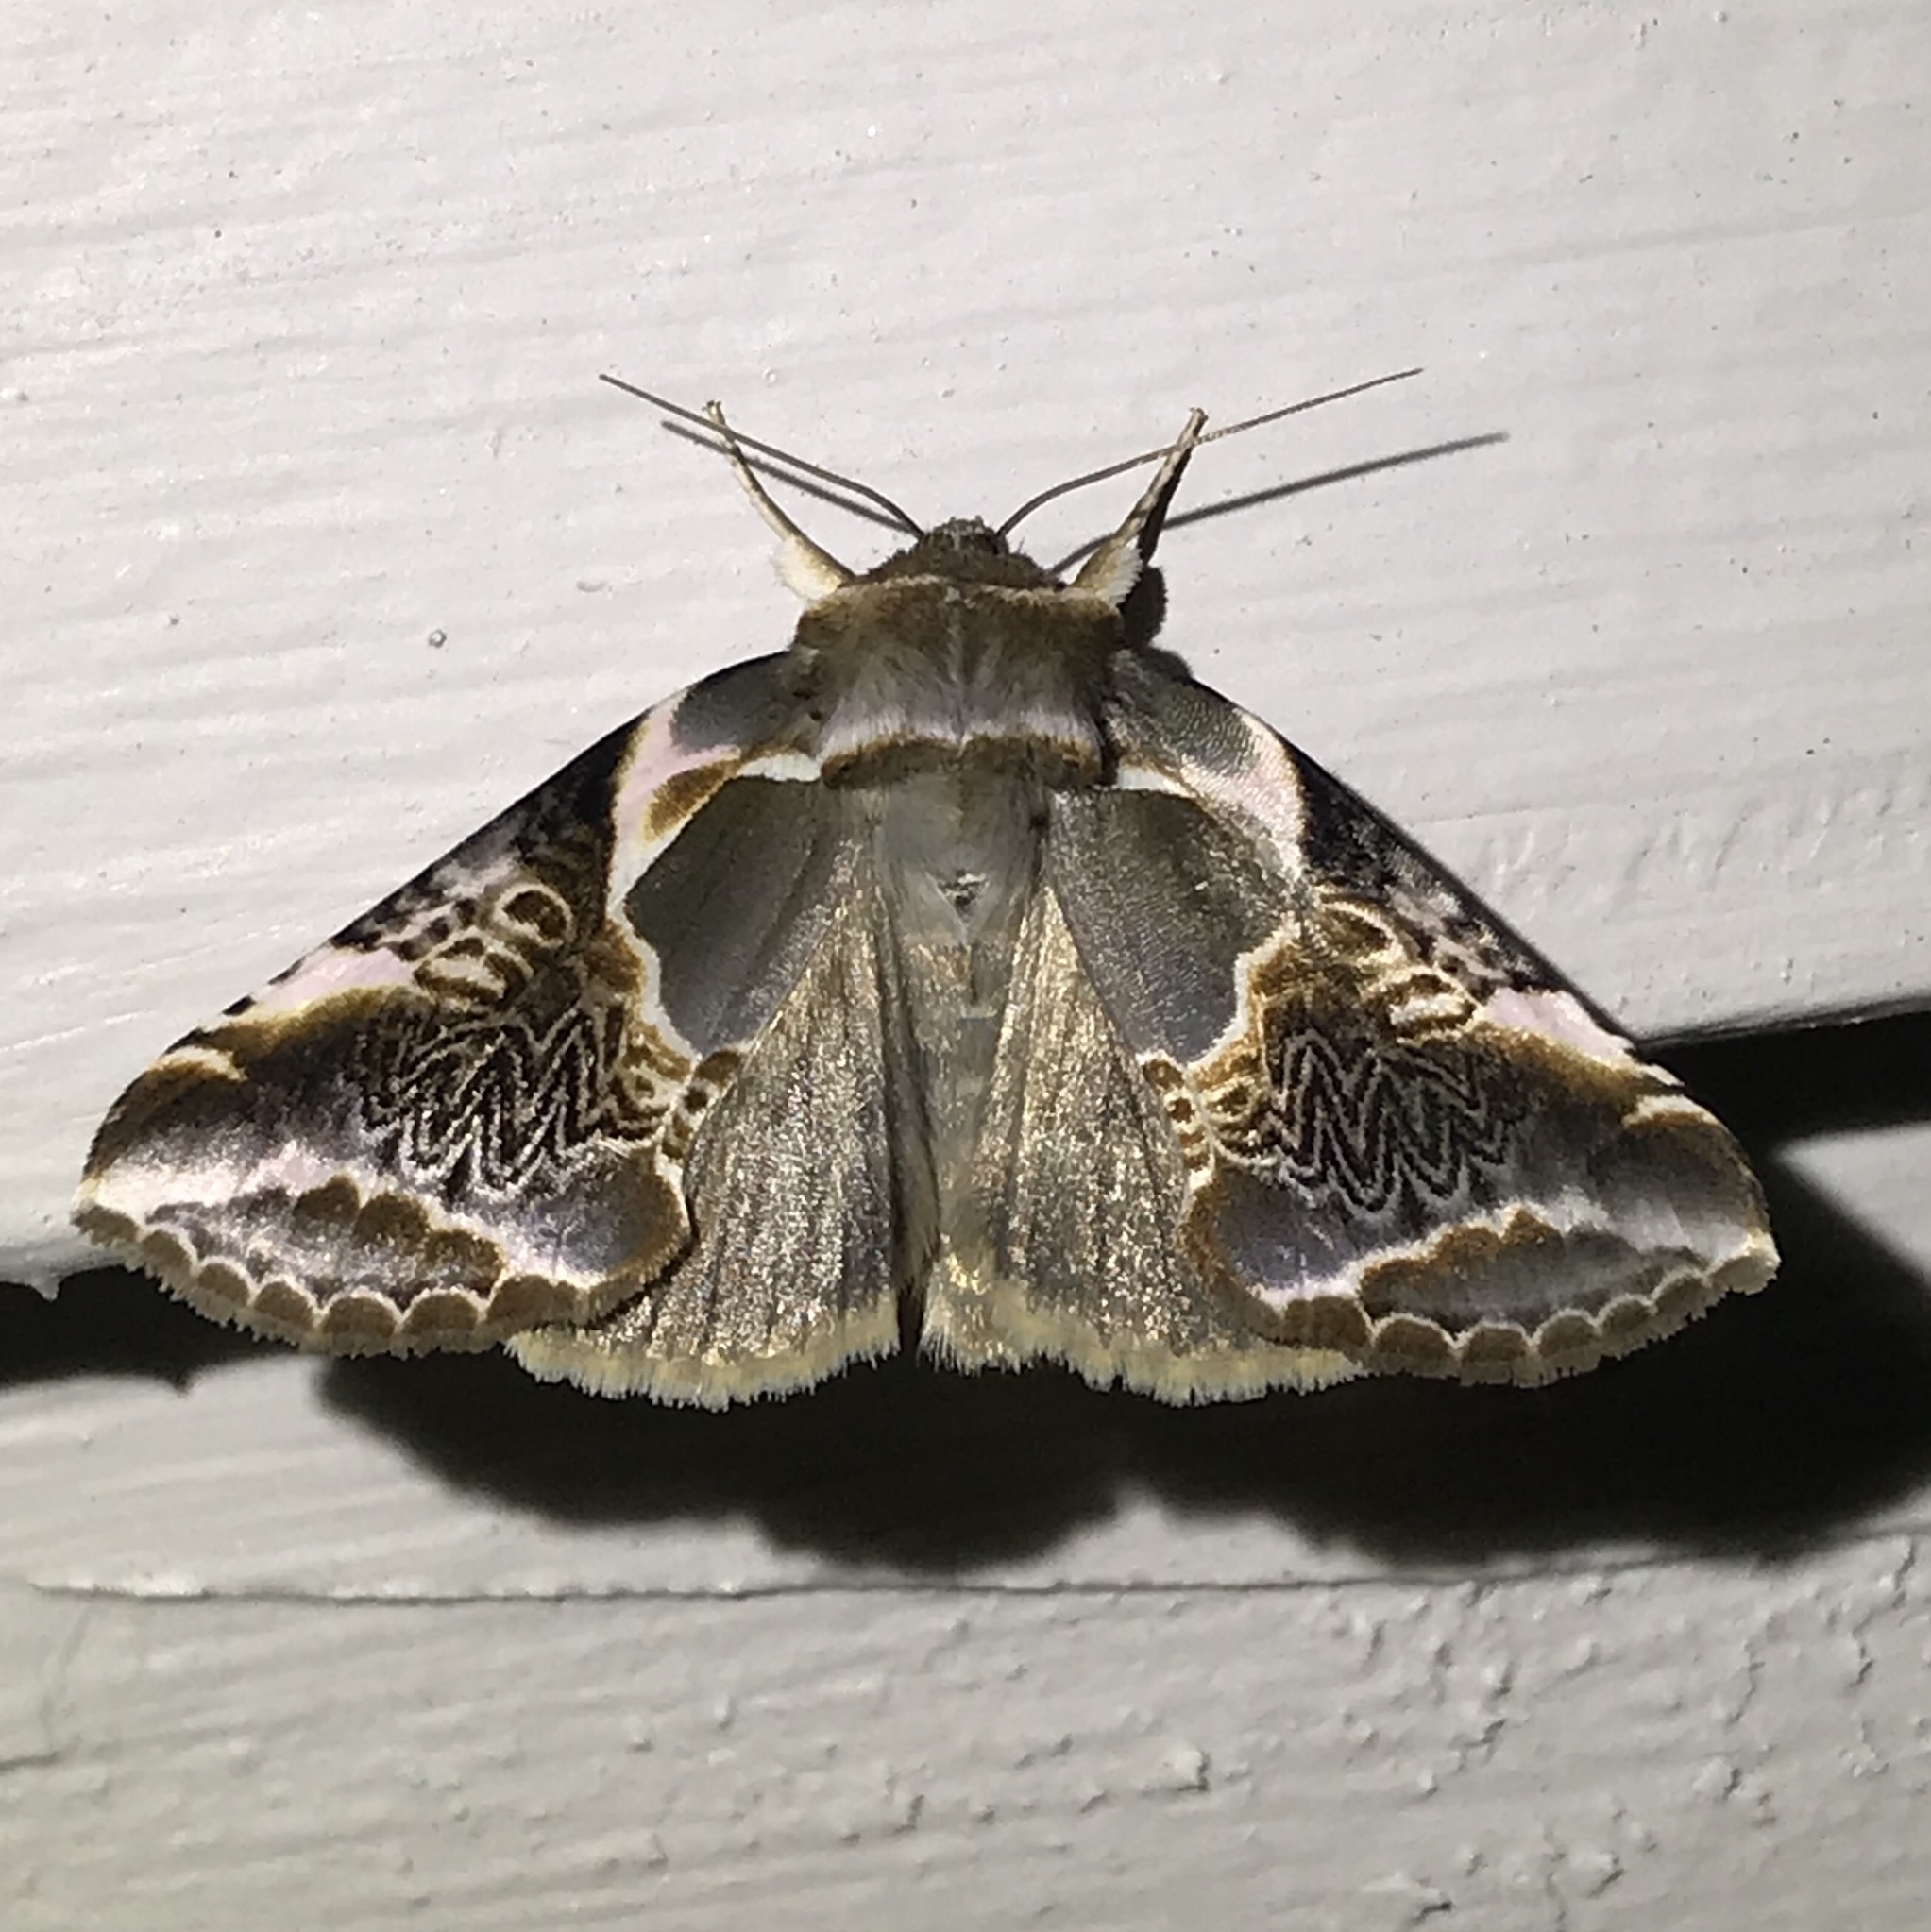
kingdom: Animalia
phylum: Arthropoda
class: Insecta
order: Lepidoptera
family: Drepanidae
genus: Habrosyne
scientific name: Habrosyne scripta
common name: Lettered habrosyne moth
